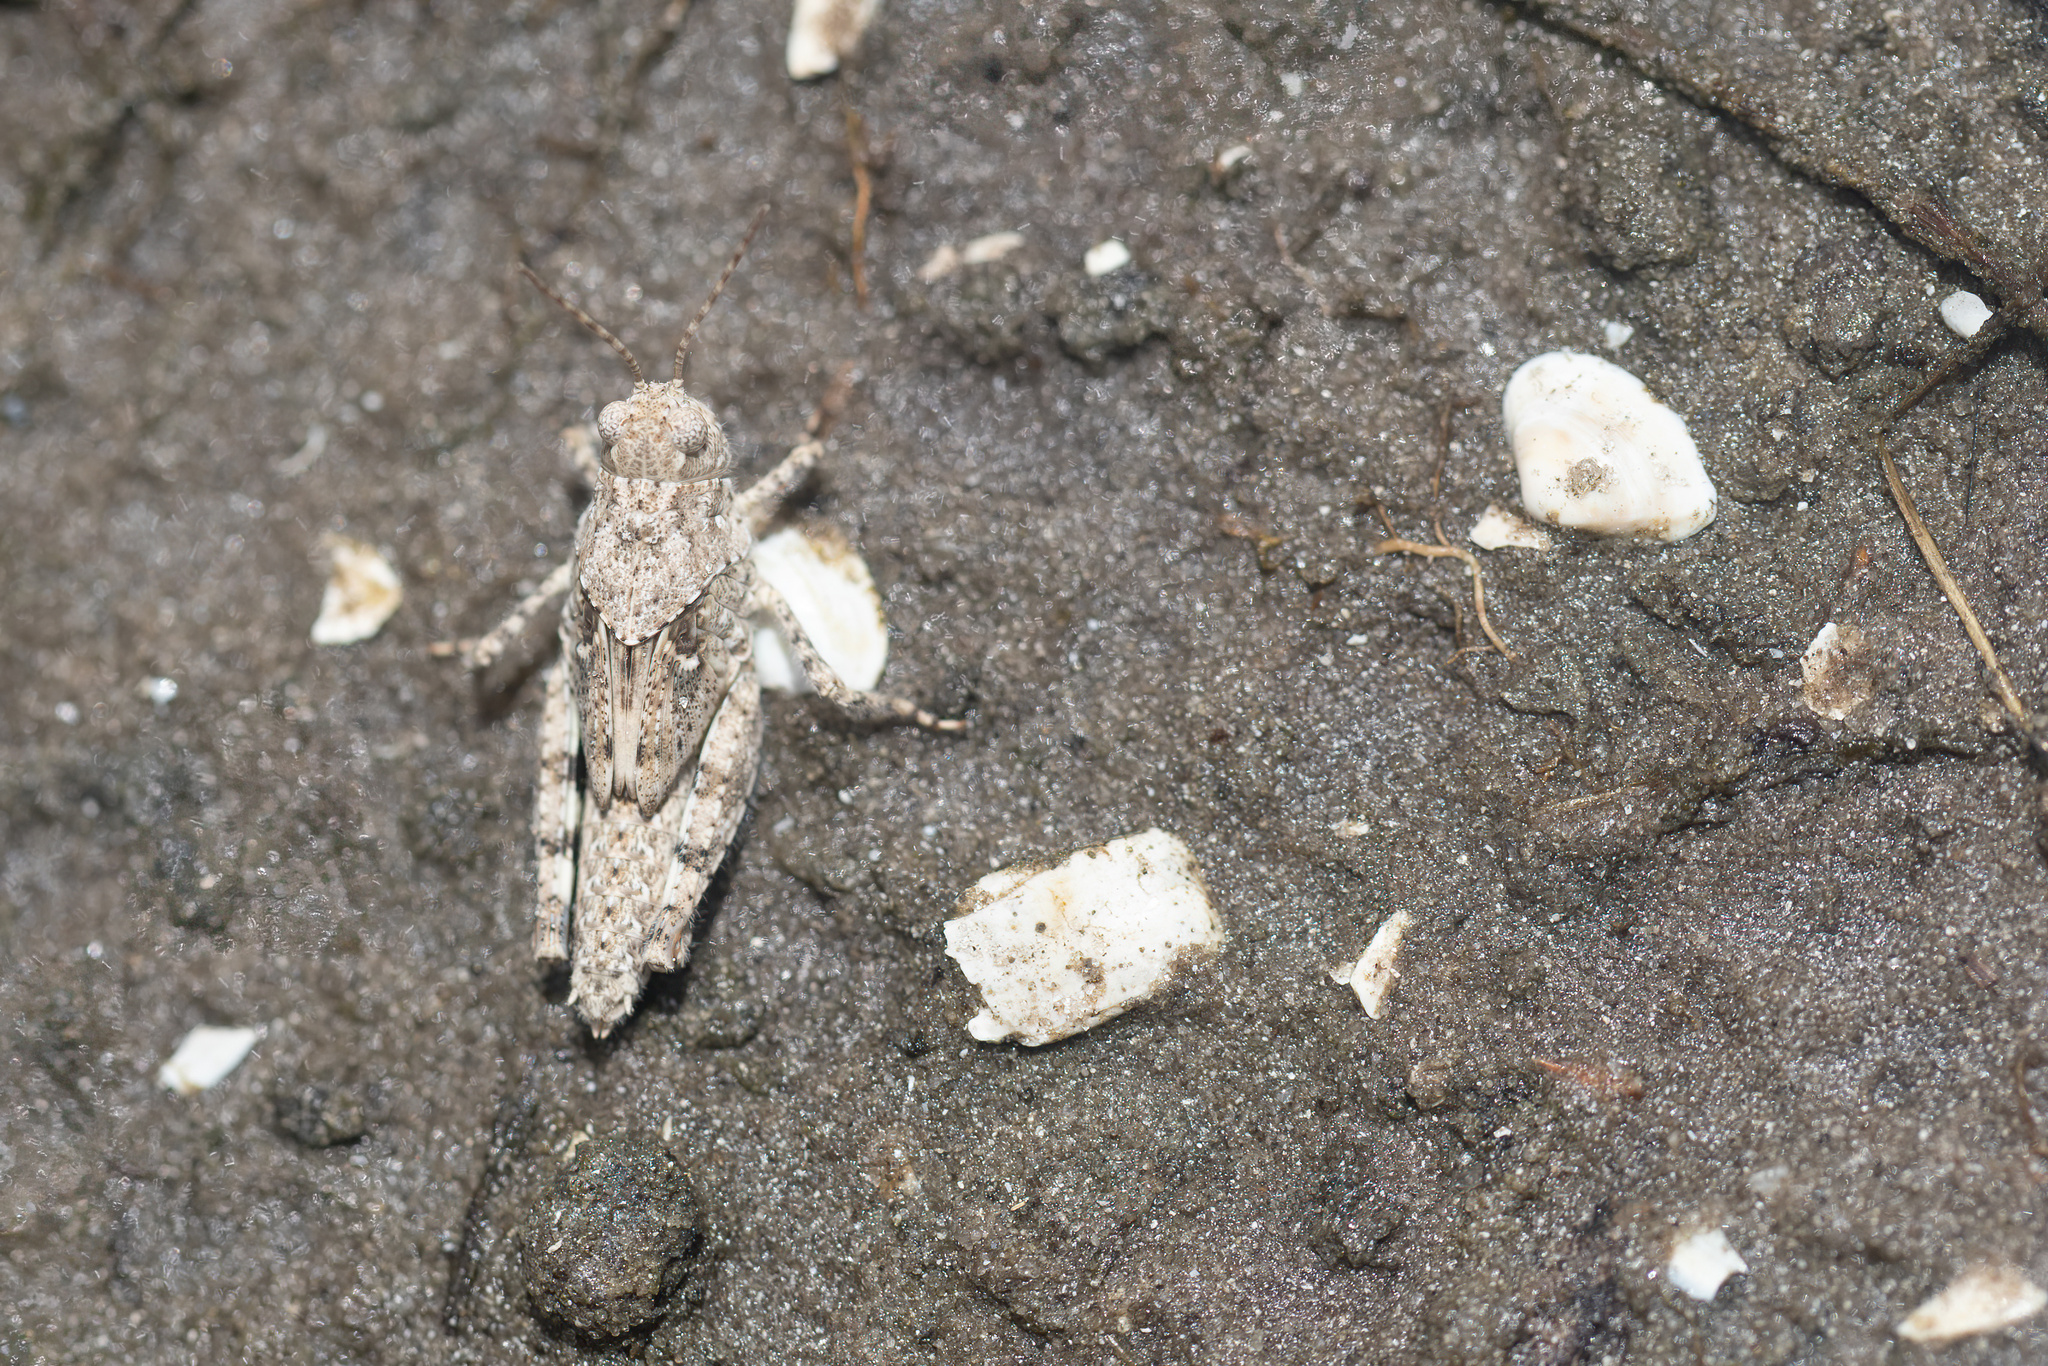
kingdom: Animalia
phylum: Arthropoda
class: Insecta
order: Orthoptera
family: Acrididae
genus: Trimerotropis
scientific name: Trimerotropis maritima
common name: Seaside locust
